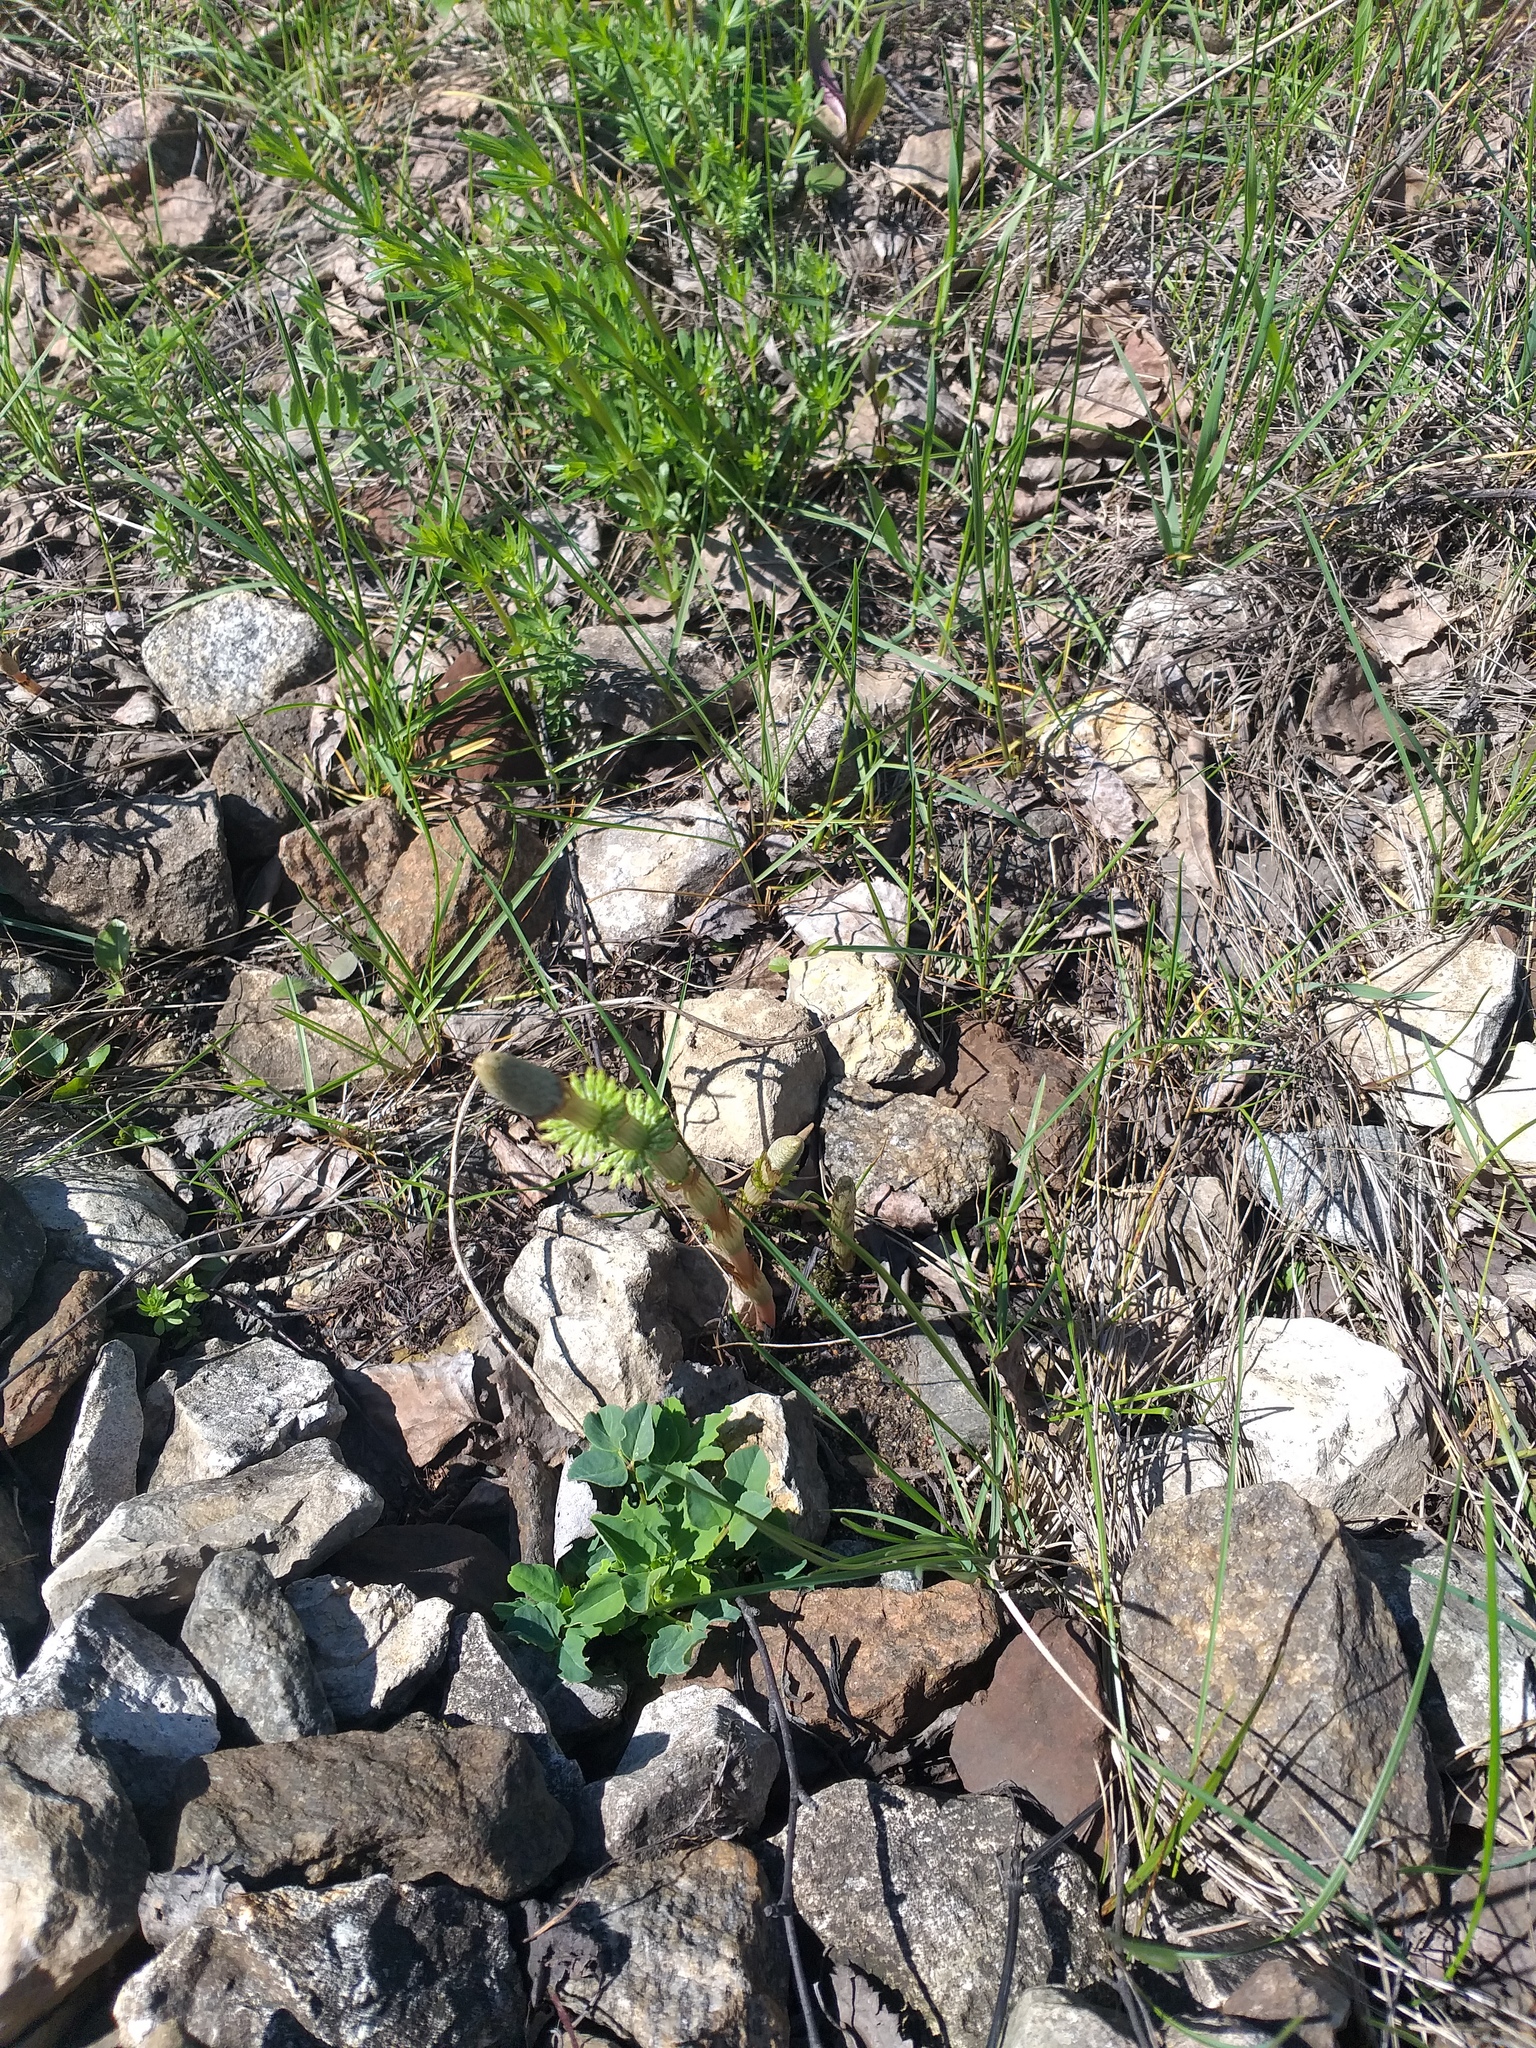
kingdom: Plantae
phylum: Tracheophyta
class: Polypodiopsida
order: Equisetales
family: Equisetaceae
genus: Equisetum
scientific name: Equisetum sylvaticum
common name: Wood horsetail
